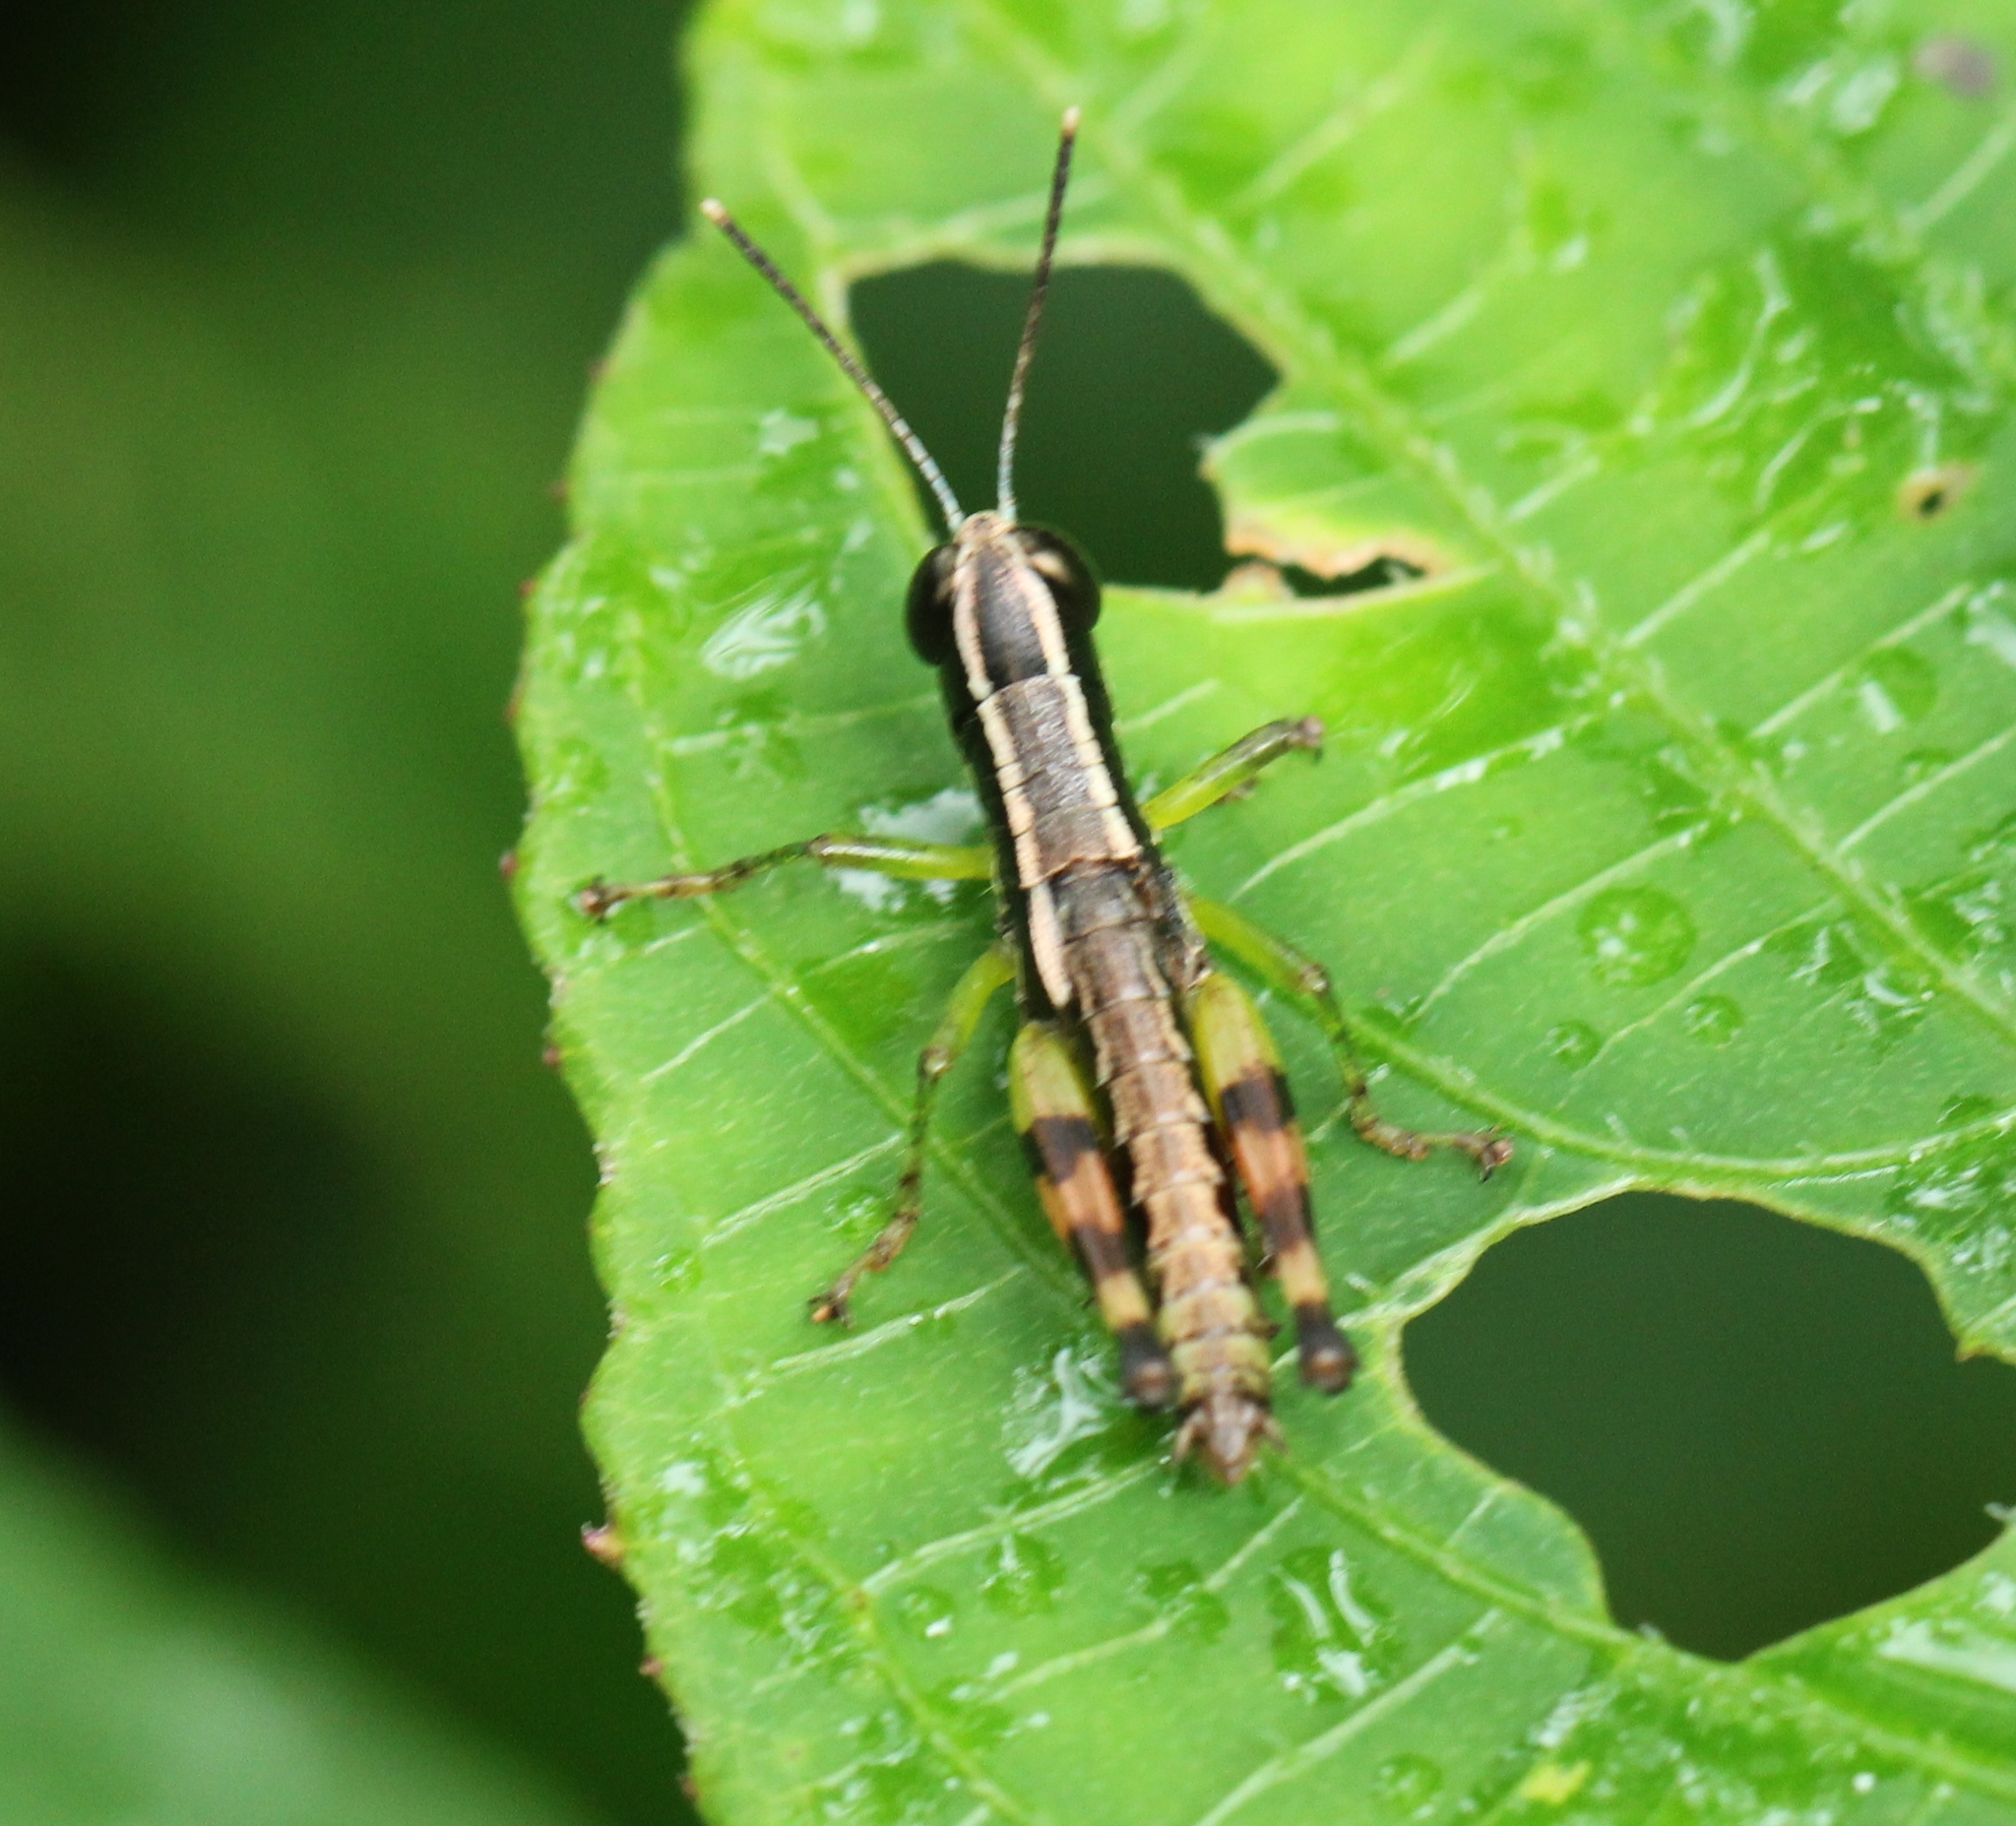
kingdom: Animalia
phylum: Arthropoda
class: Insecta
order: Orthoptera
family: Acrididae
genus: Chitaura
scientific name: Chitaura indica
